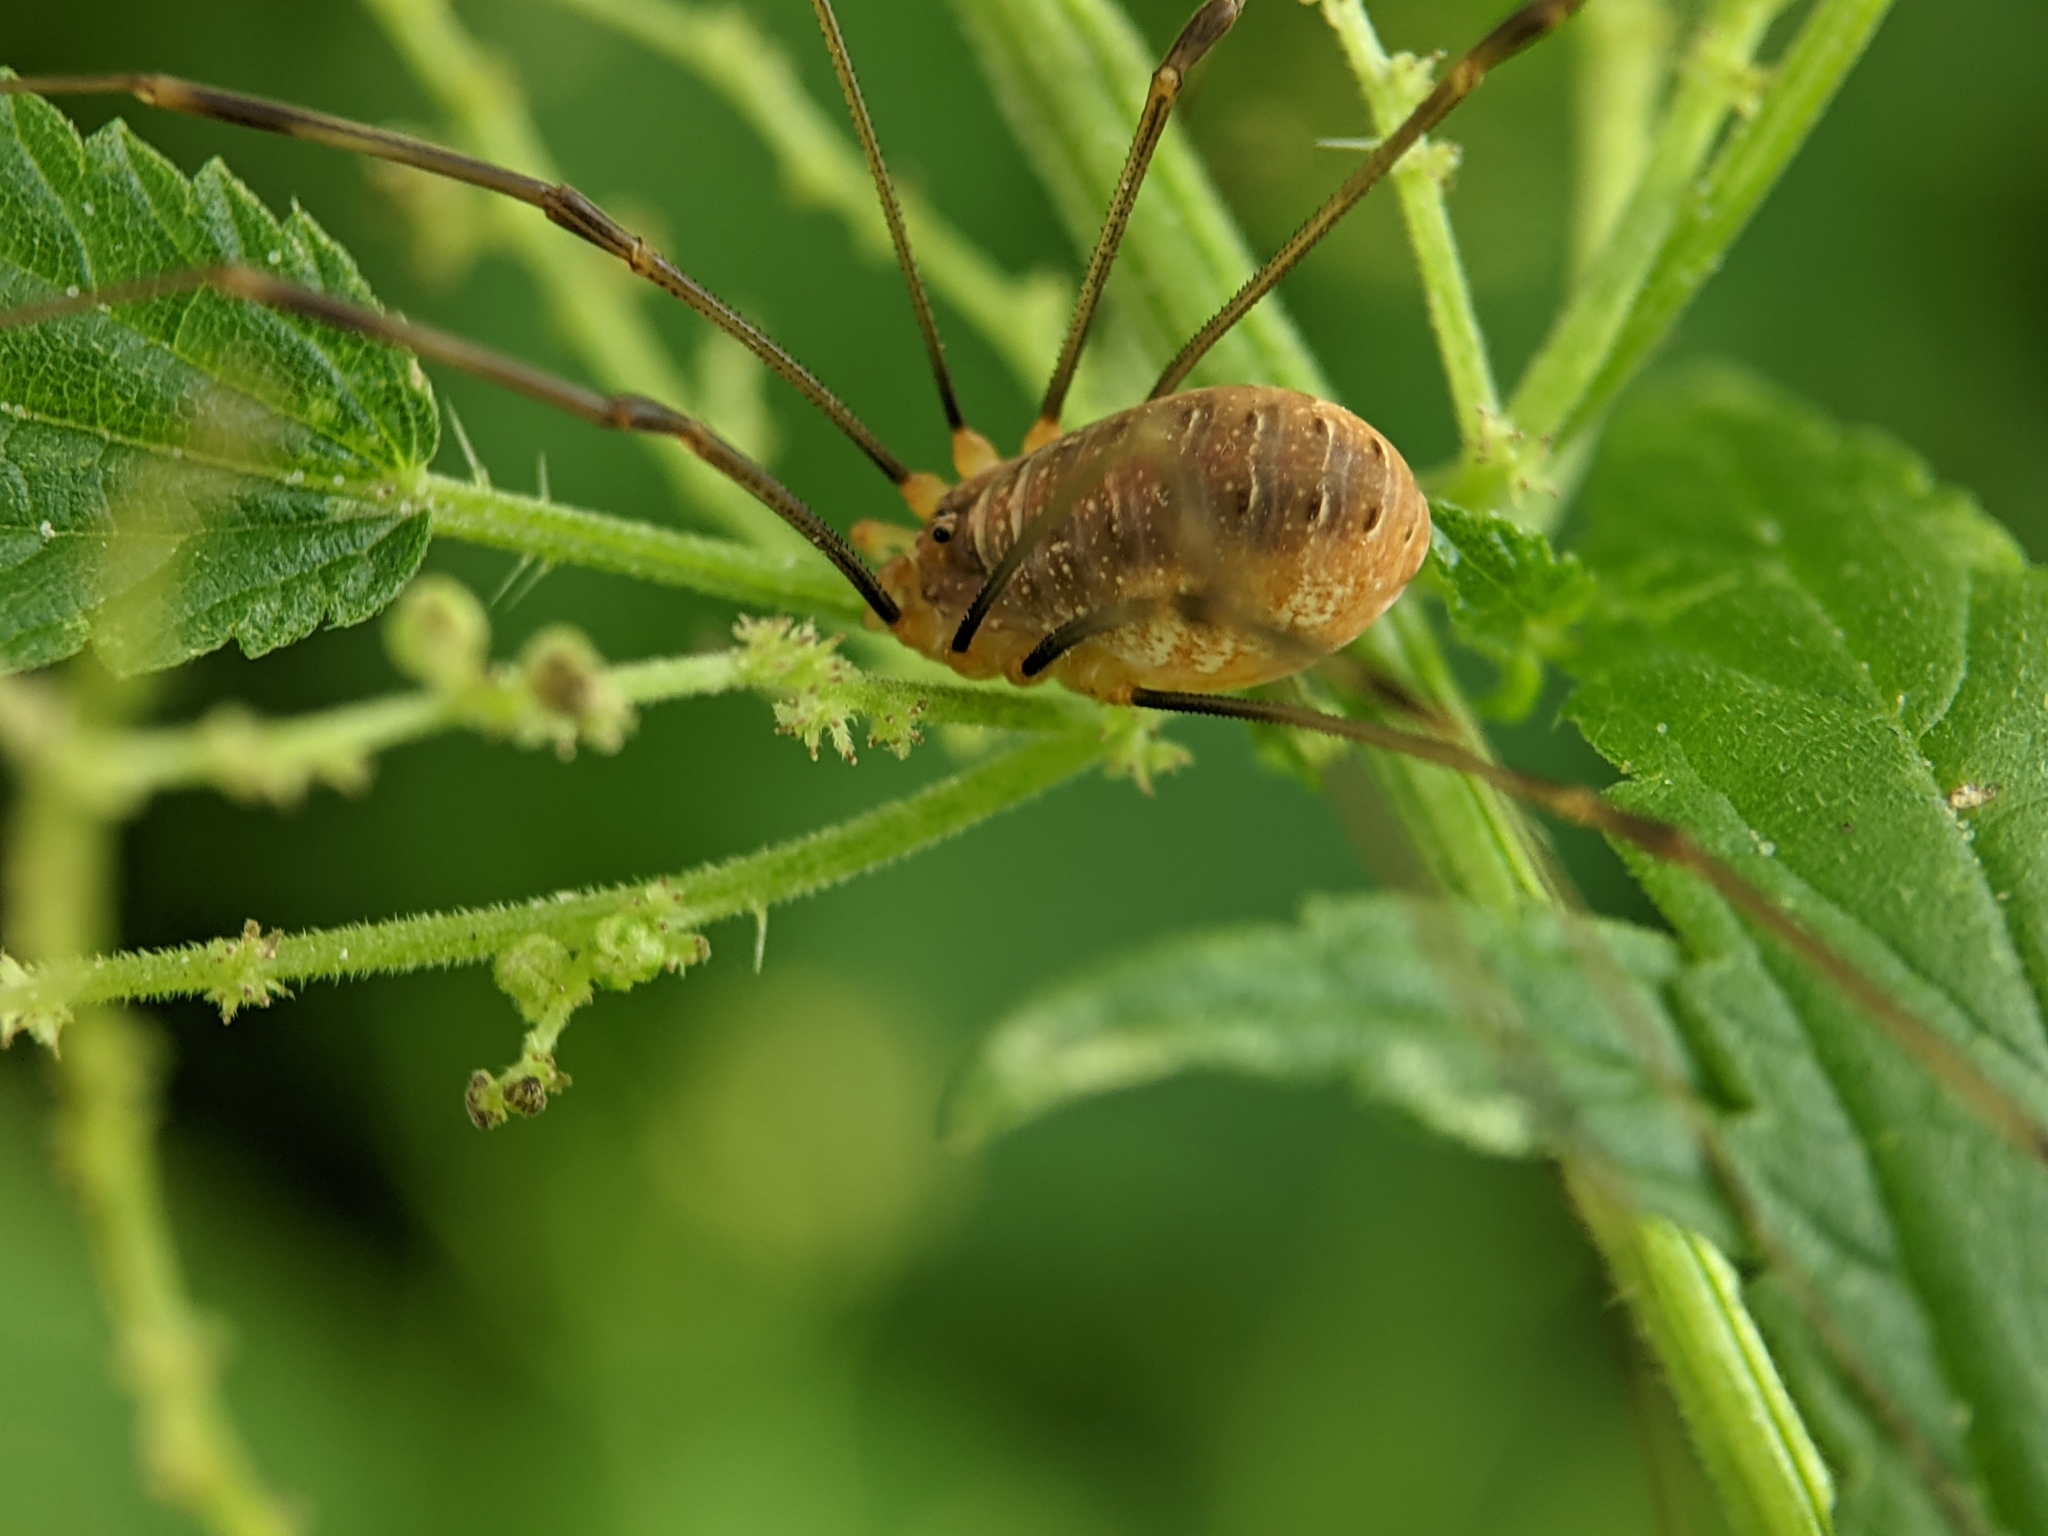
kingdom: Animalia
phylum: Arthropoda
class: Arachnida
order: Opiliones
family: Phalangiidae
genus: Opilio
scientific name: Opilio canestrinii
